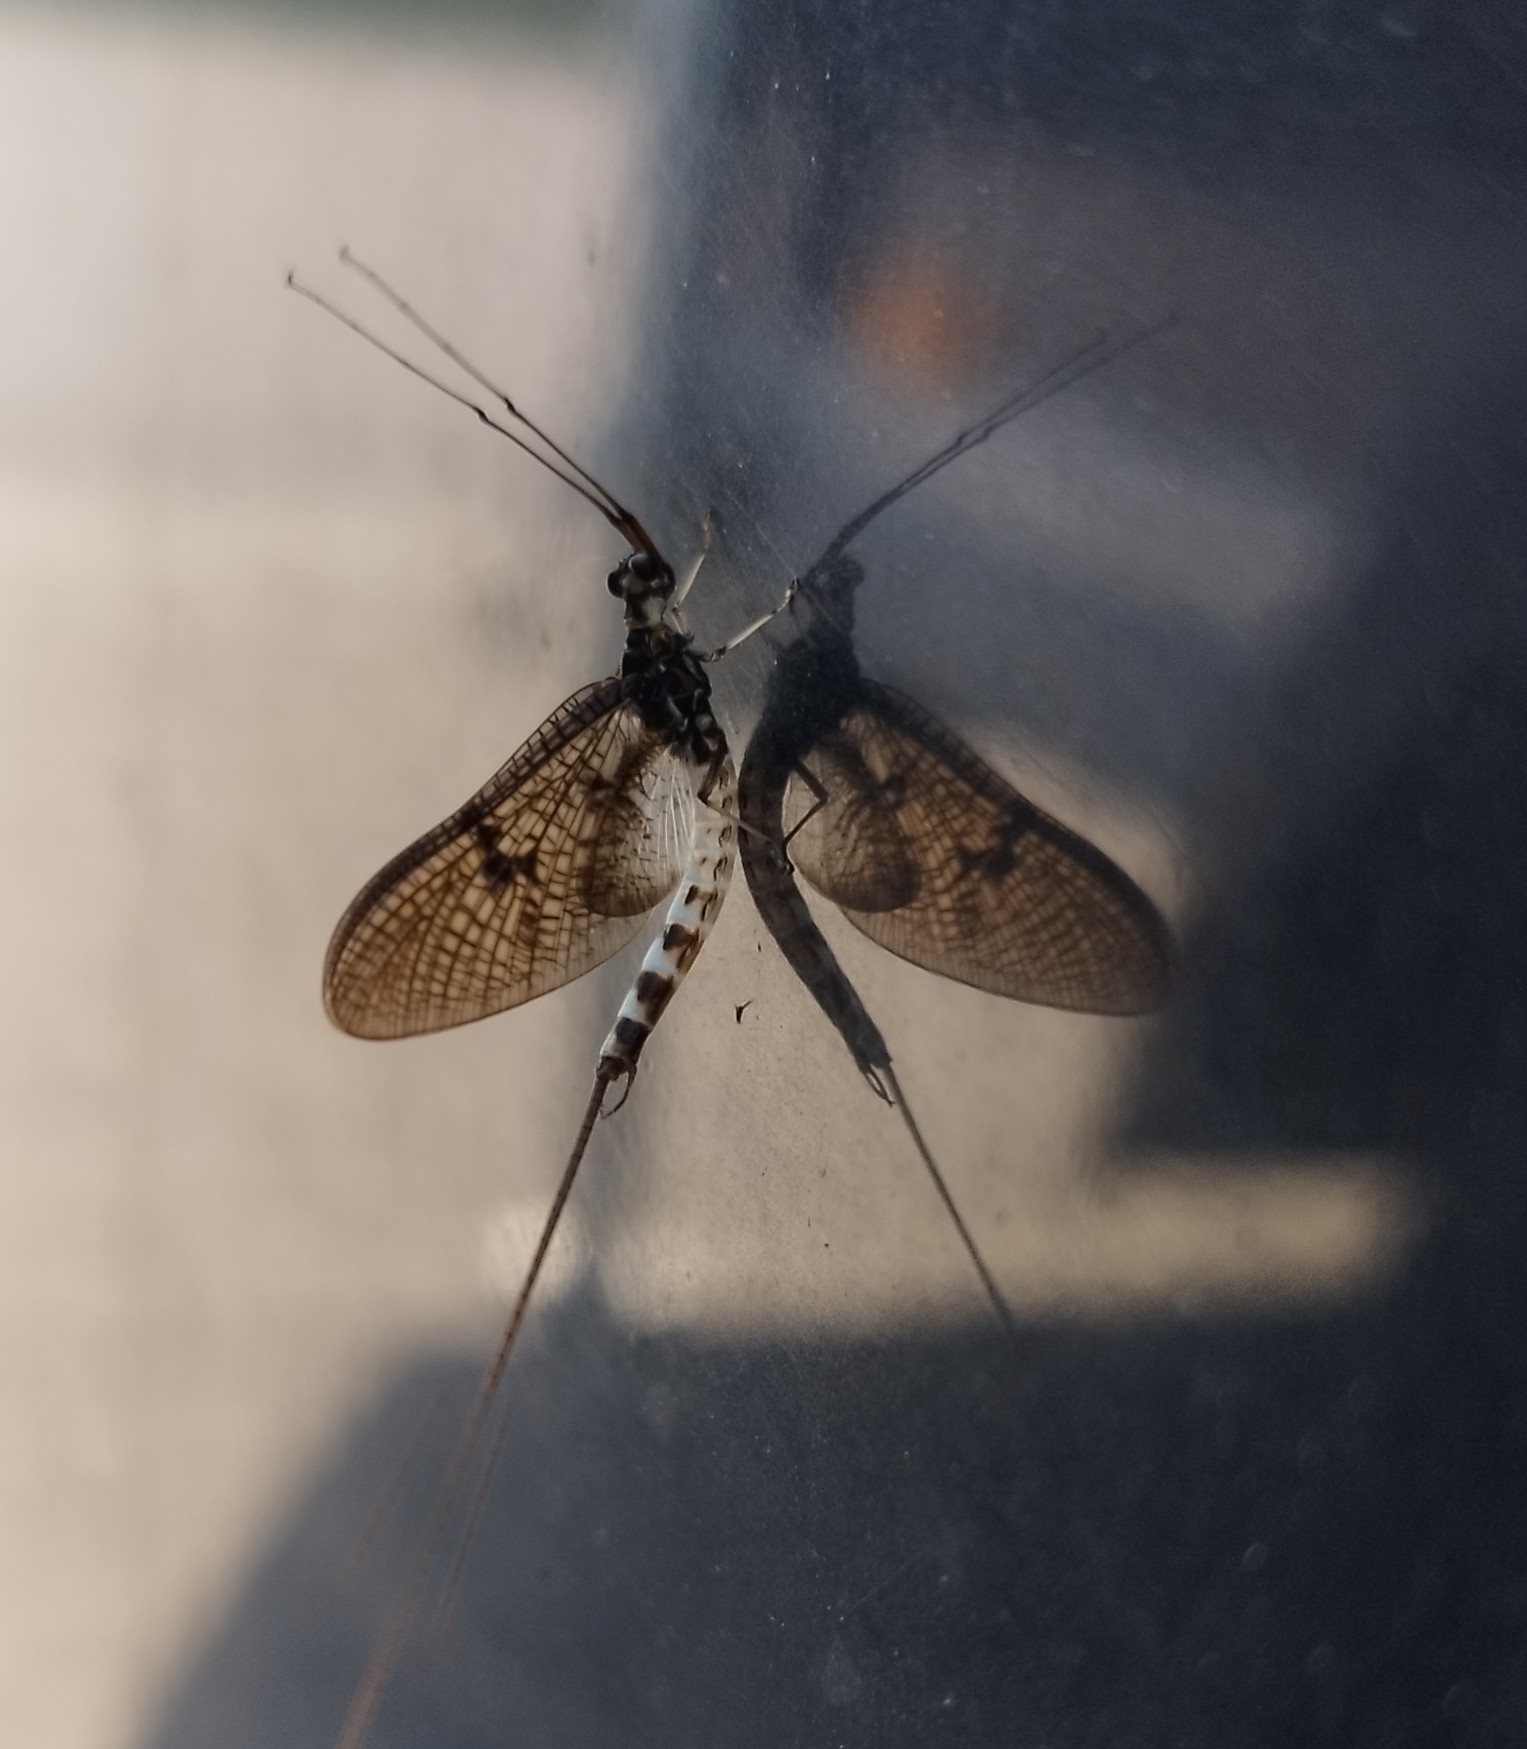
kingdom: Animalia
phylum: Arthropoda
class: Insecta
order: Ephemeroptera
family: Ephemeridae
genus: Ephemera
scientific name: Ephemera danica
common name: Green dun
